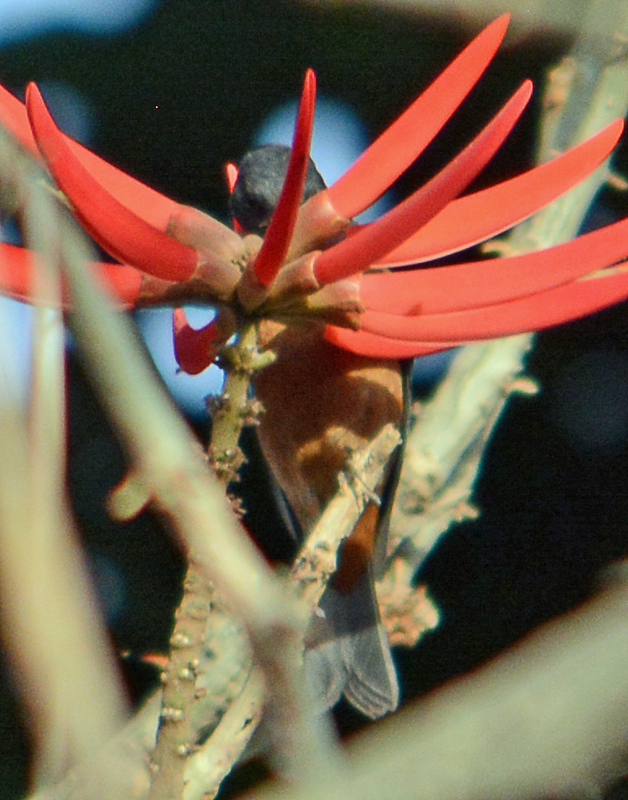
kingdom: Animalia
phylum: Chordata
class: Aves
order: Passeriformes
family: Thraupidae
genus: Diglossa
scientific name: Diglossa baritula
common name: Cinnamon-bellied flowerpiercer
